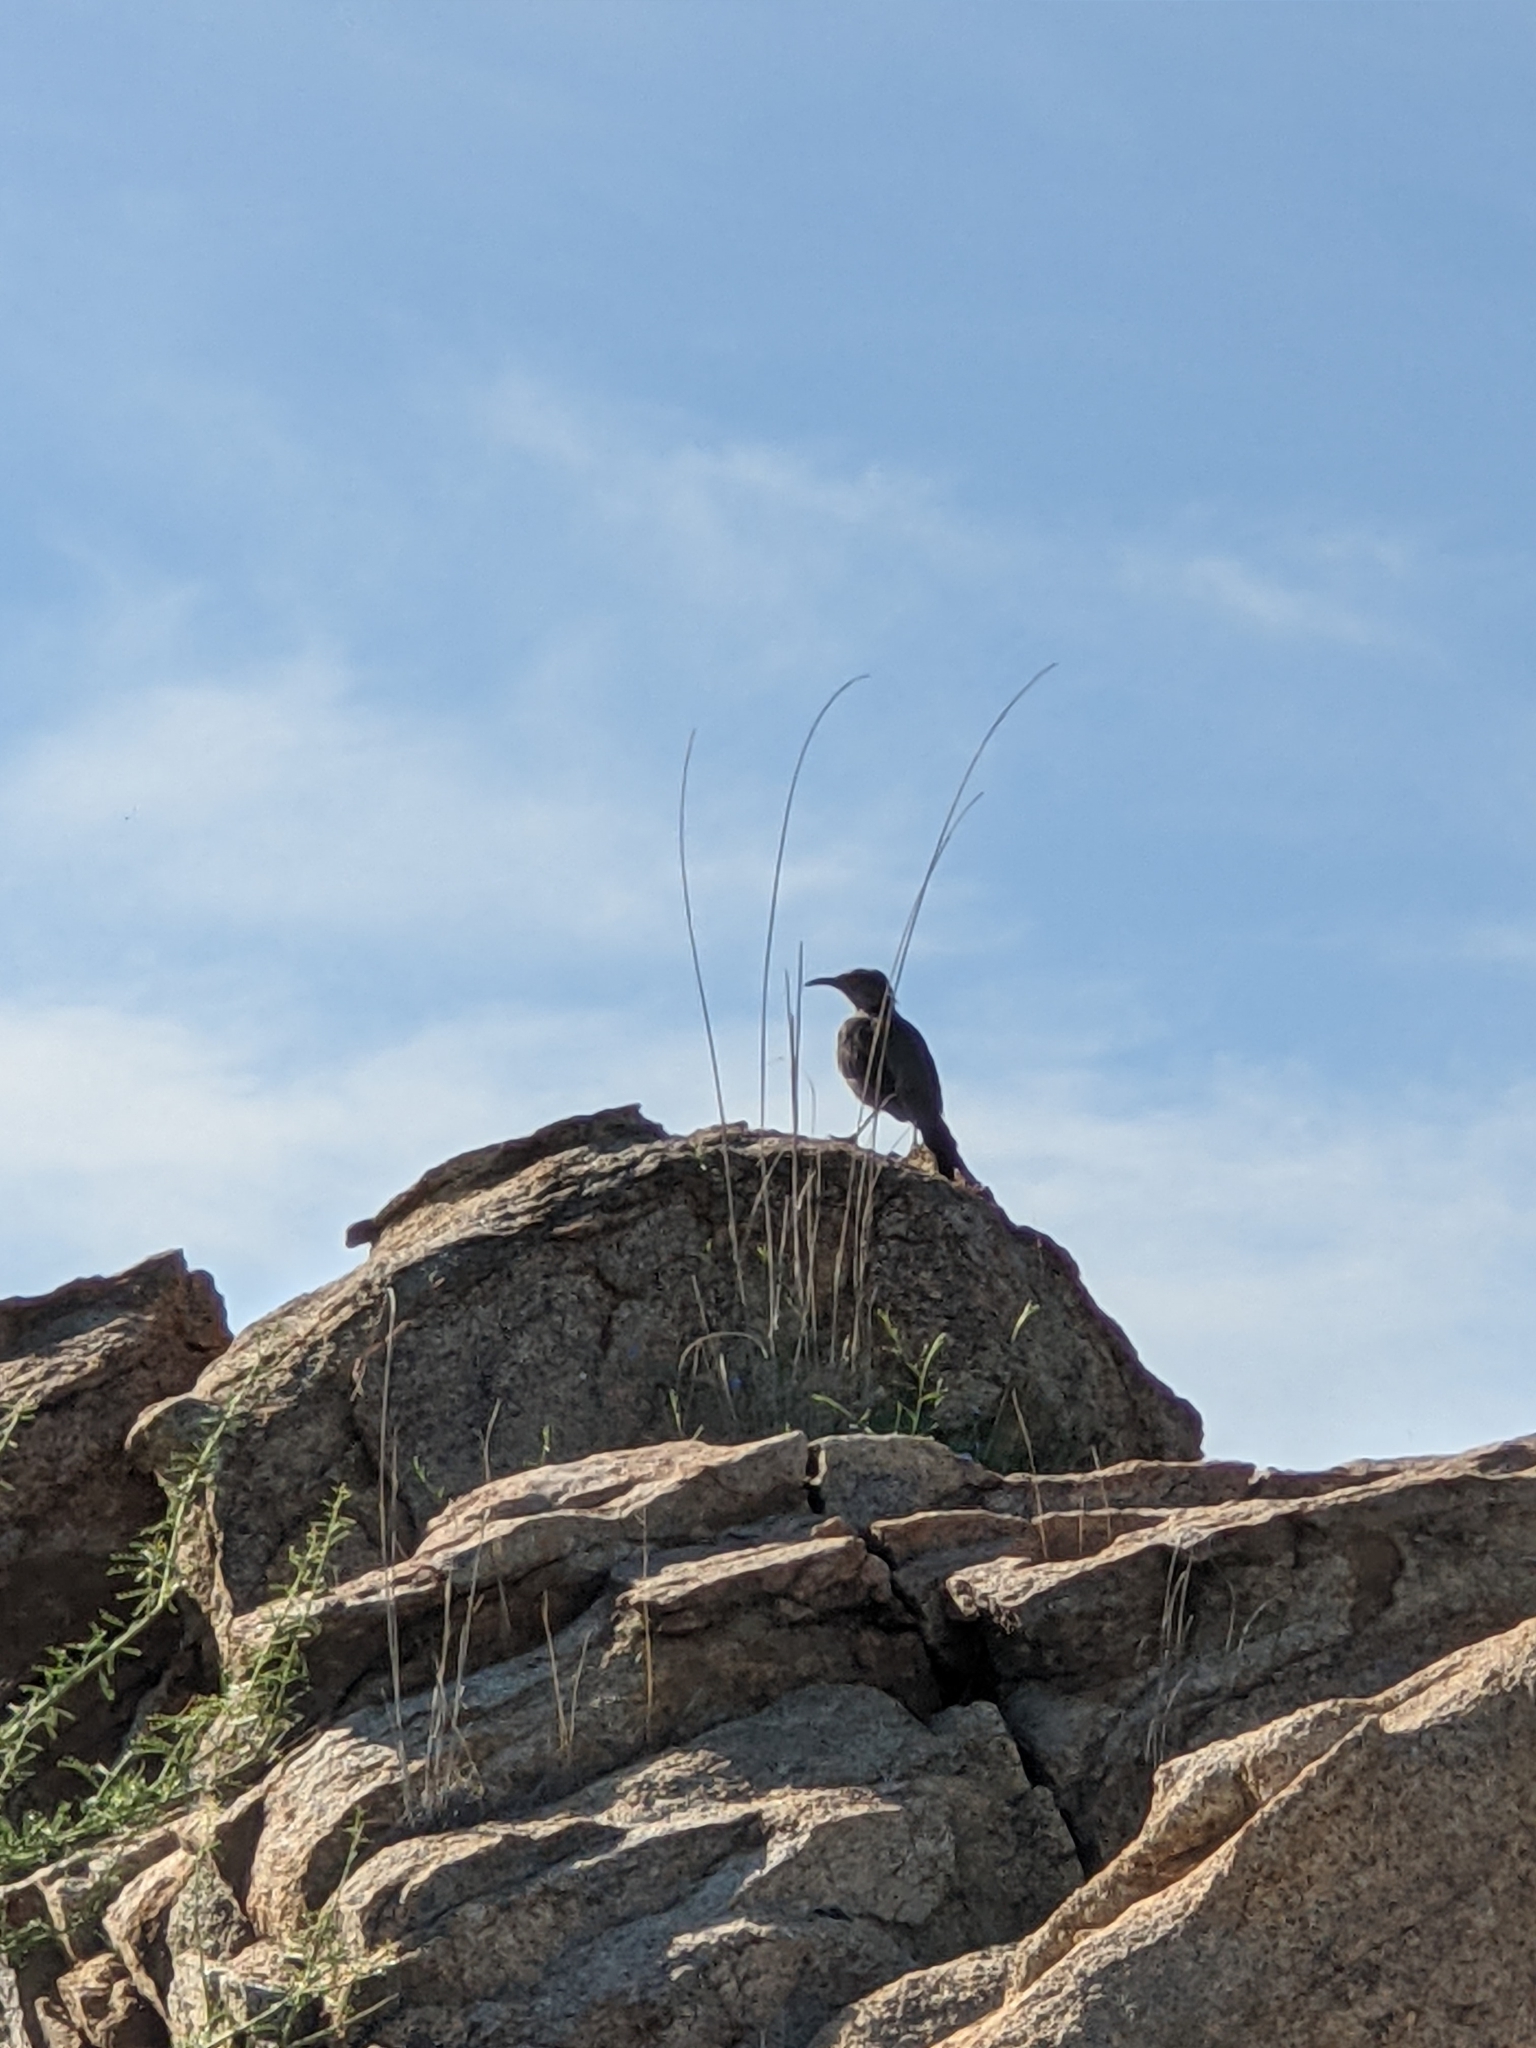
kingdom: Animalia
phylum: Chordata
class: Aves
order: Passeriformes
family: Mimidae
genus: Toxostoma
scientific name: Toxostoma curvirostre
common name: Curve-billed thrasher
